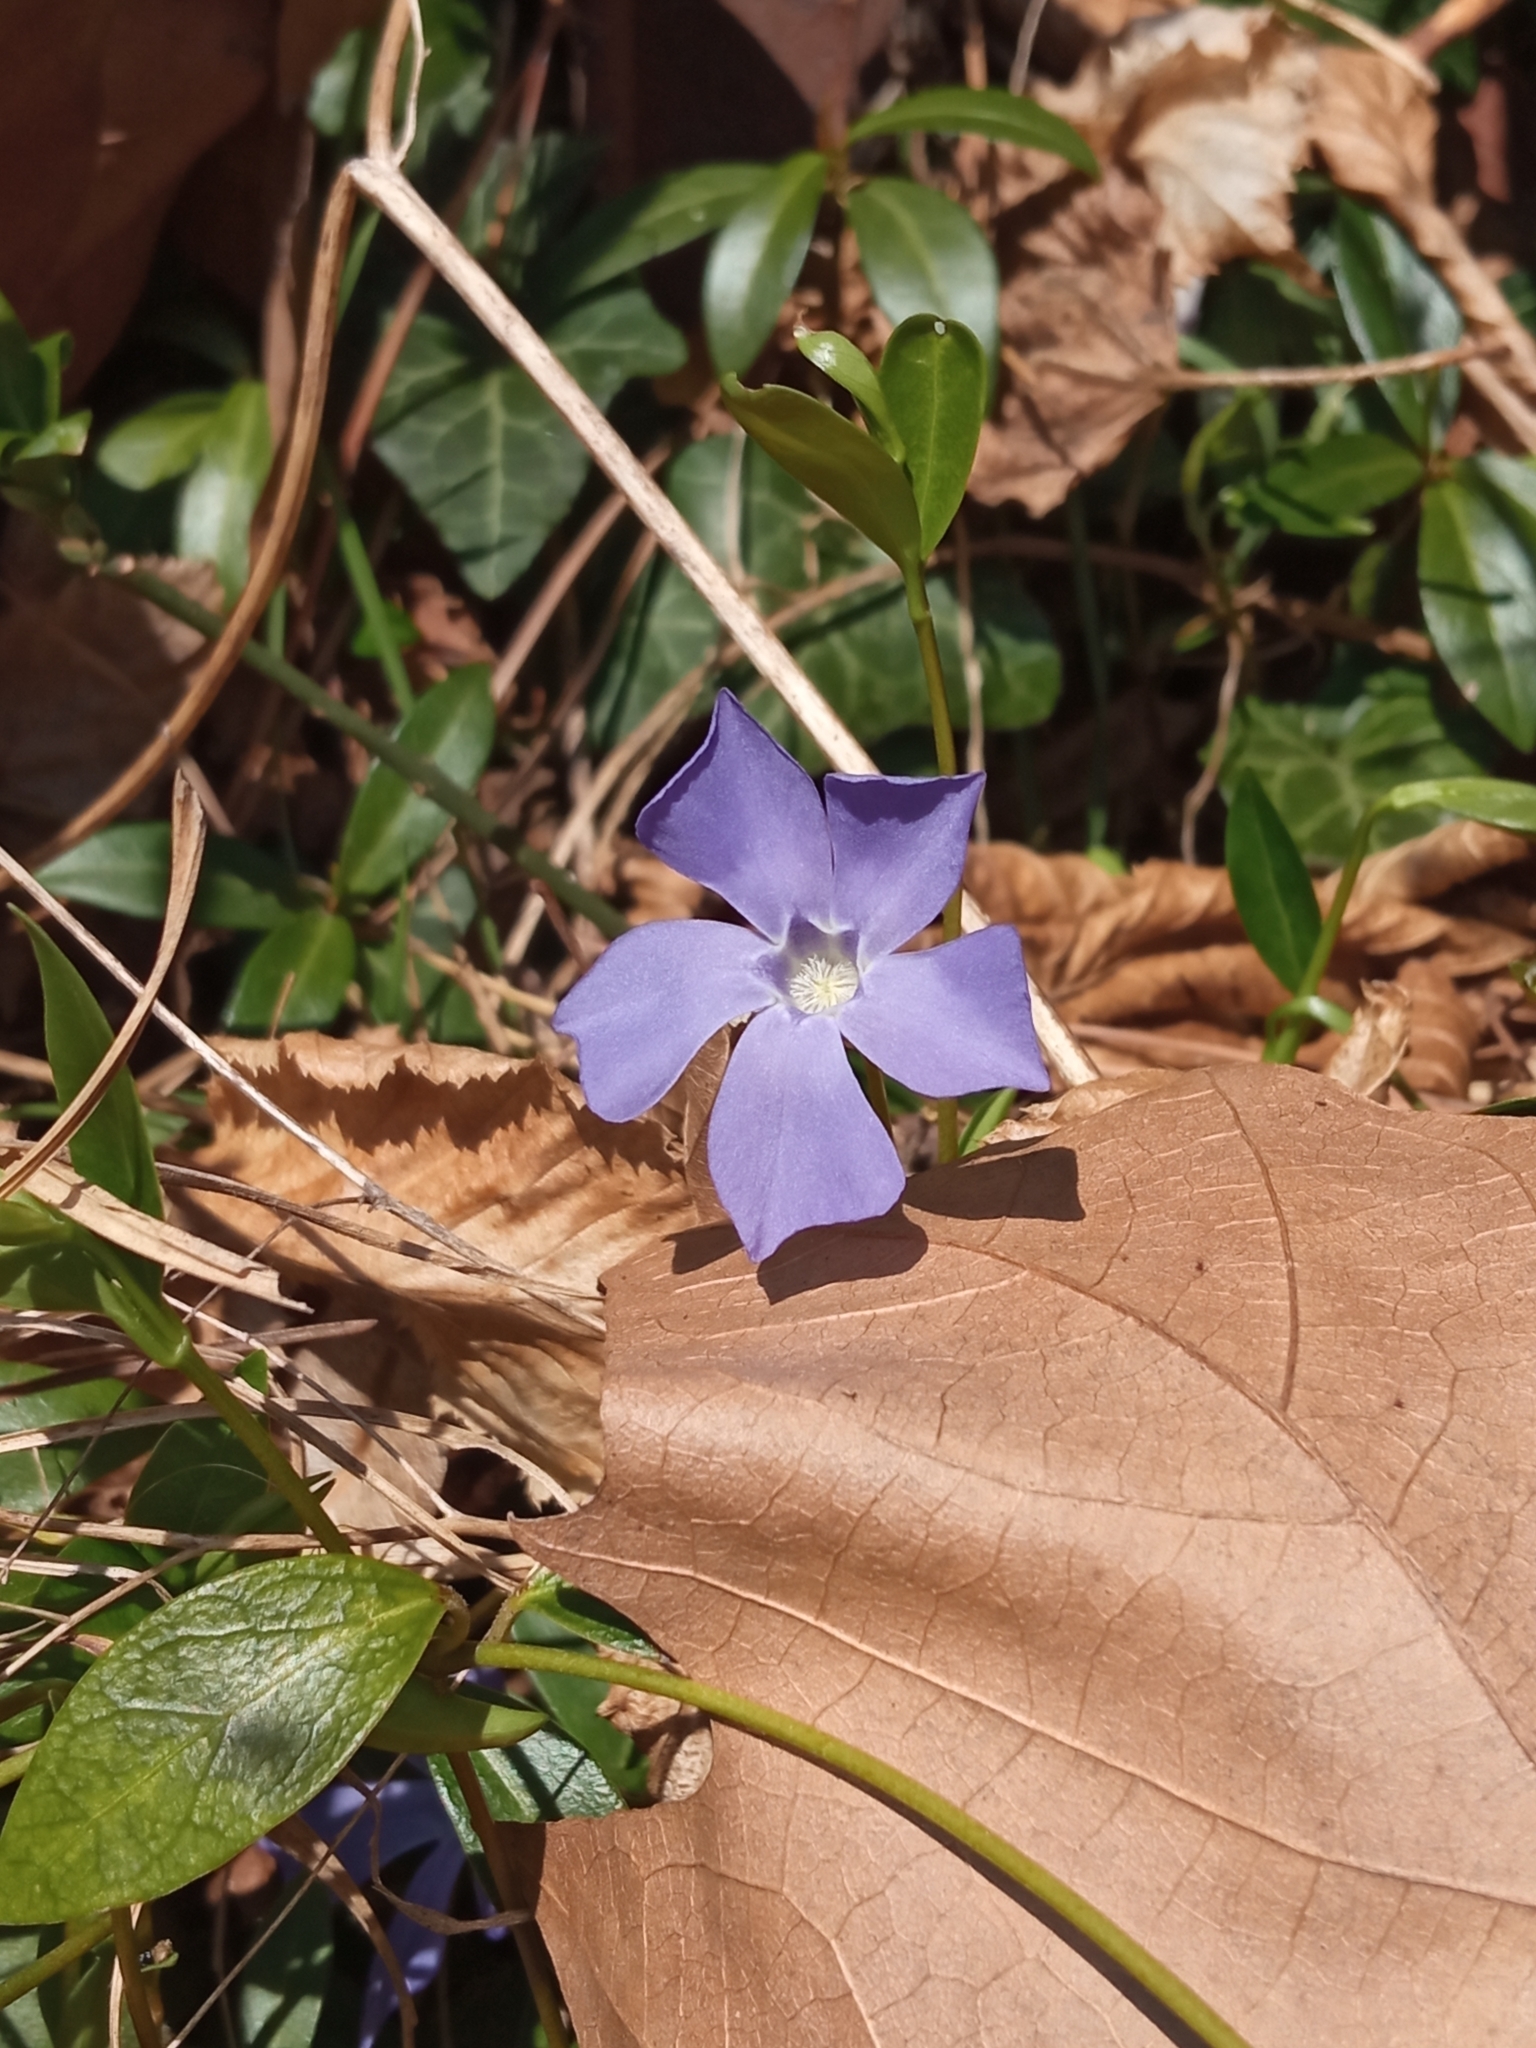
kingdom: Plantae
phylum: Tracheophyta
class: Magnoliopsida
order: Gentianales
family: Apocynaceae
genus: Vinca
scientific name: Vinca minor
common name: Lesser periwinkle
